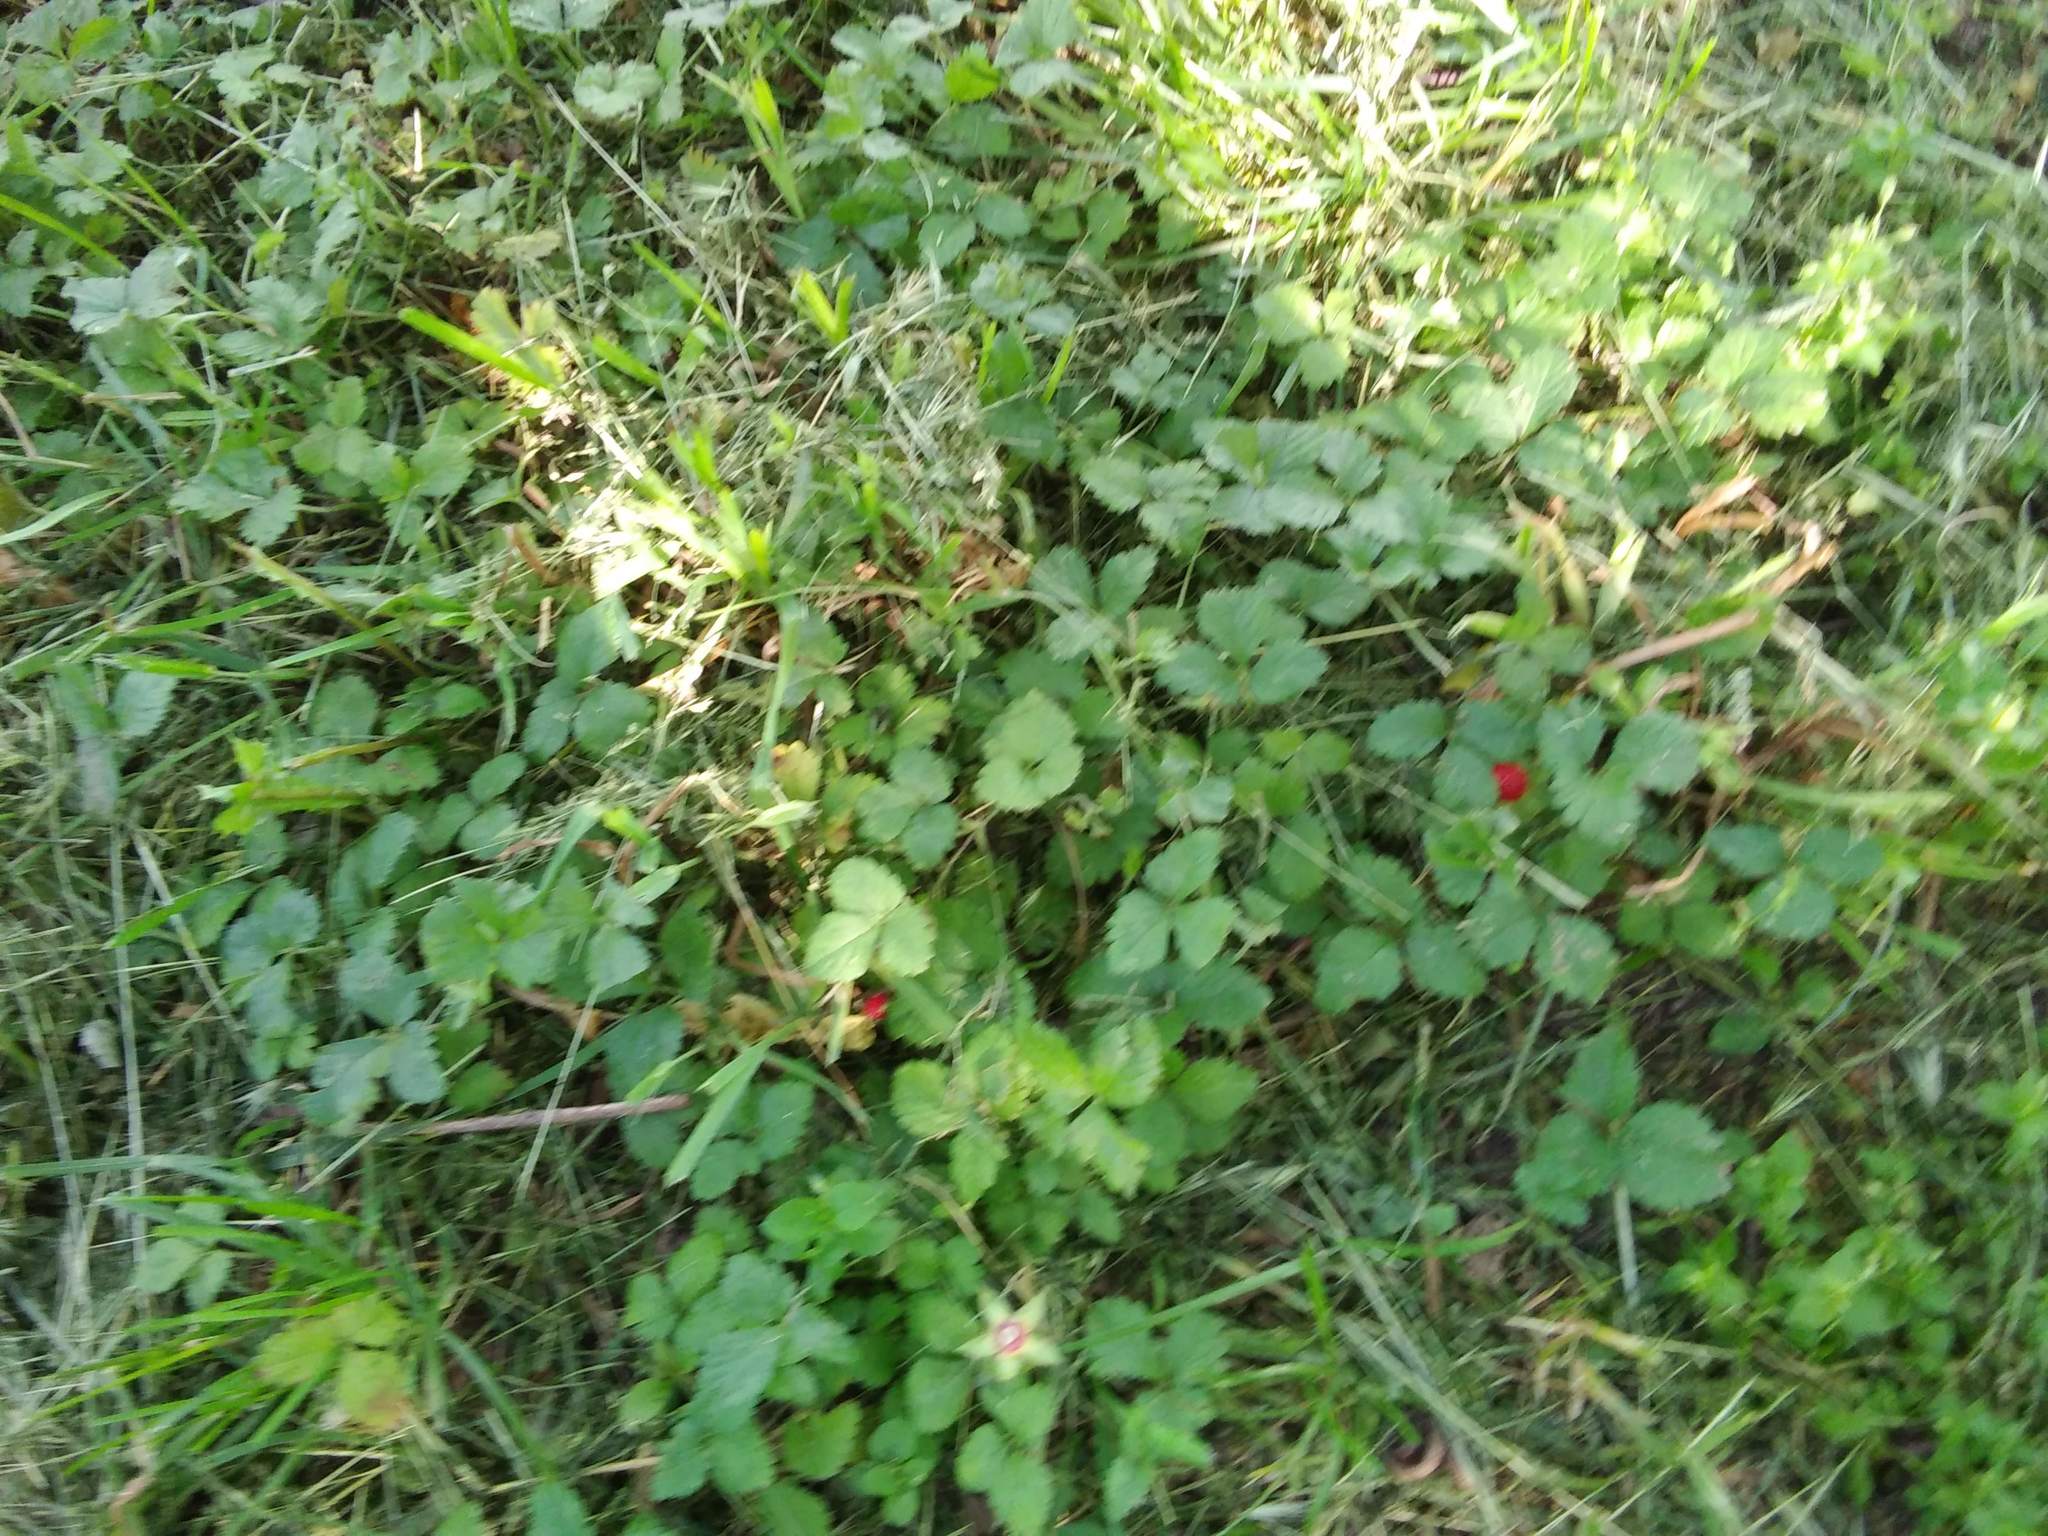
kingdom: Plantae
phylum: Tracheophyta
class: Magnoliopsida
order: Rosales
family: Rosaceae
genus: Potentilla
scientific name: Potentilla indica
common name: Yellow-flowered strawberry
